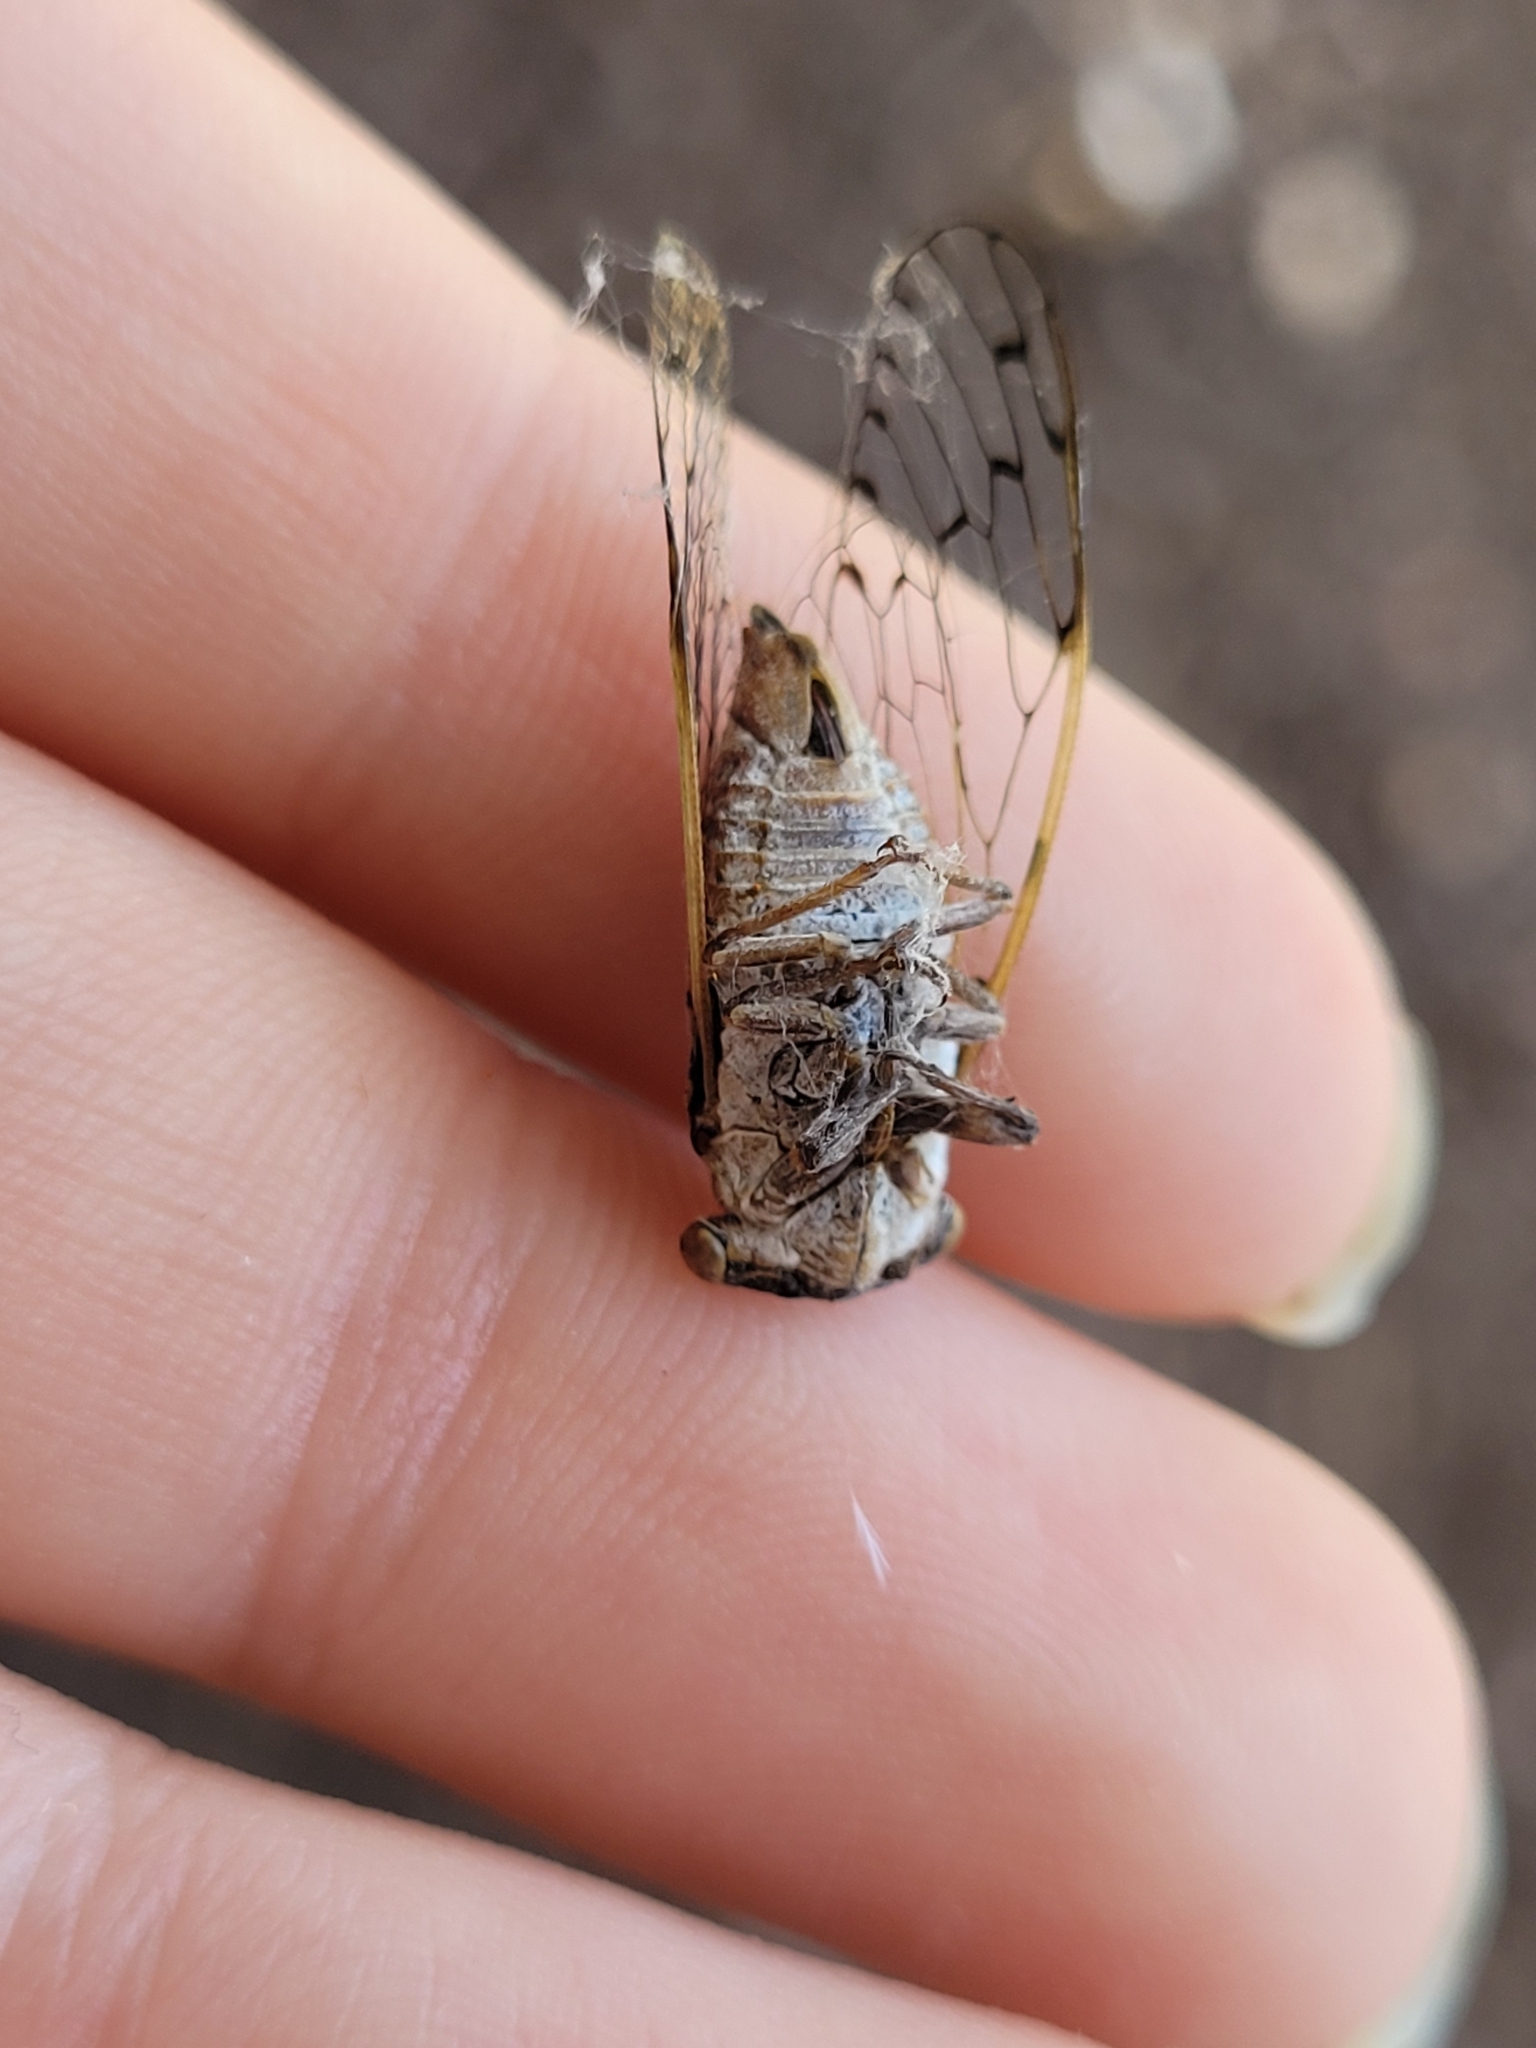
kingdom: Animalia
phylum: Arthropoda
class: Insecta
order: Hemiptera
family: Cicadidae
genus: Pacarina
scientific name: Pacarina puella
